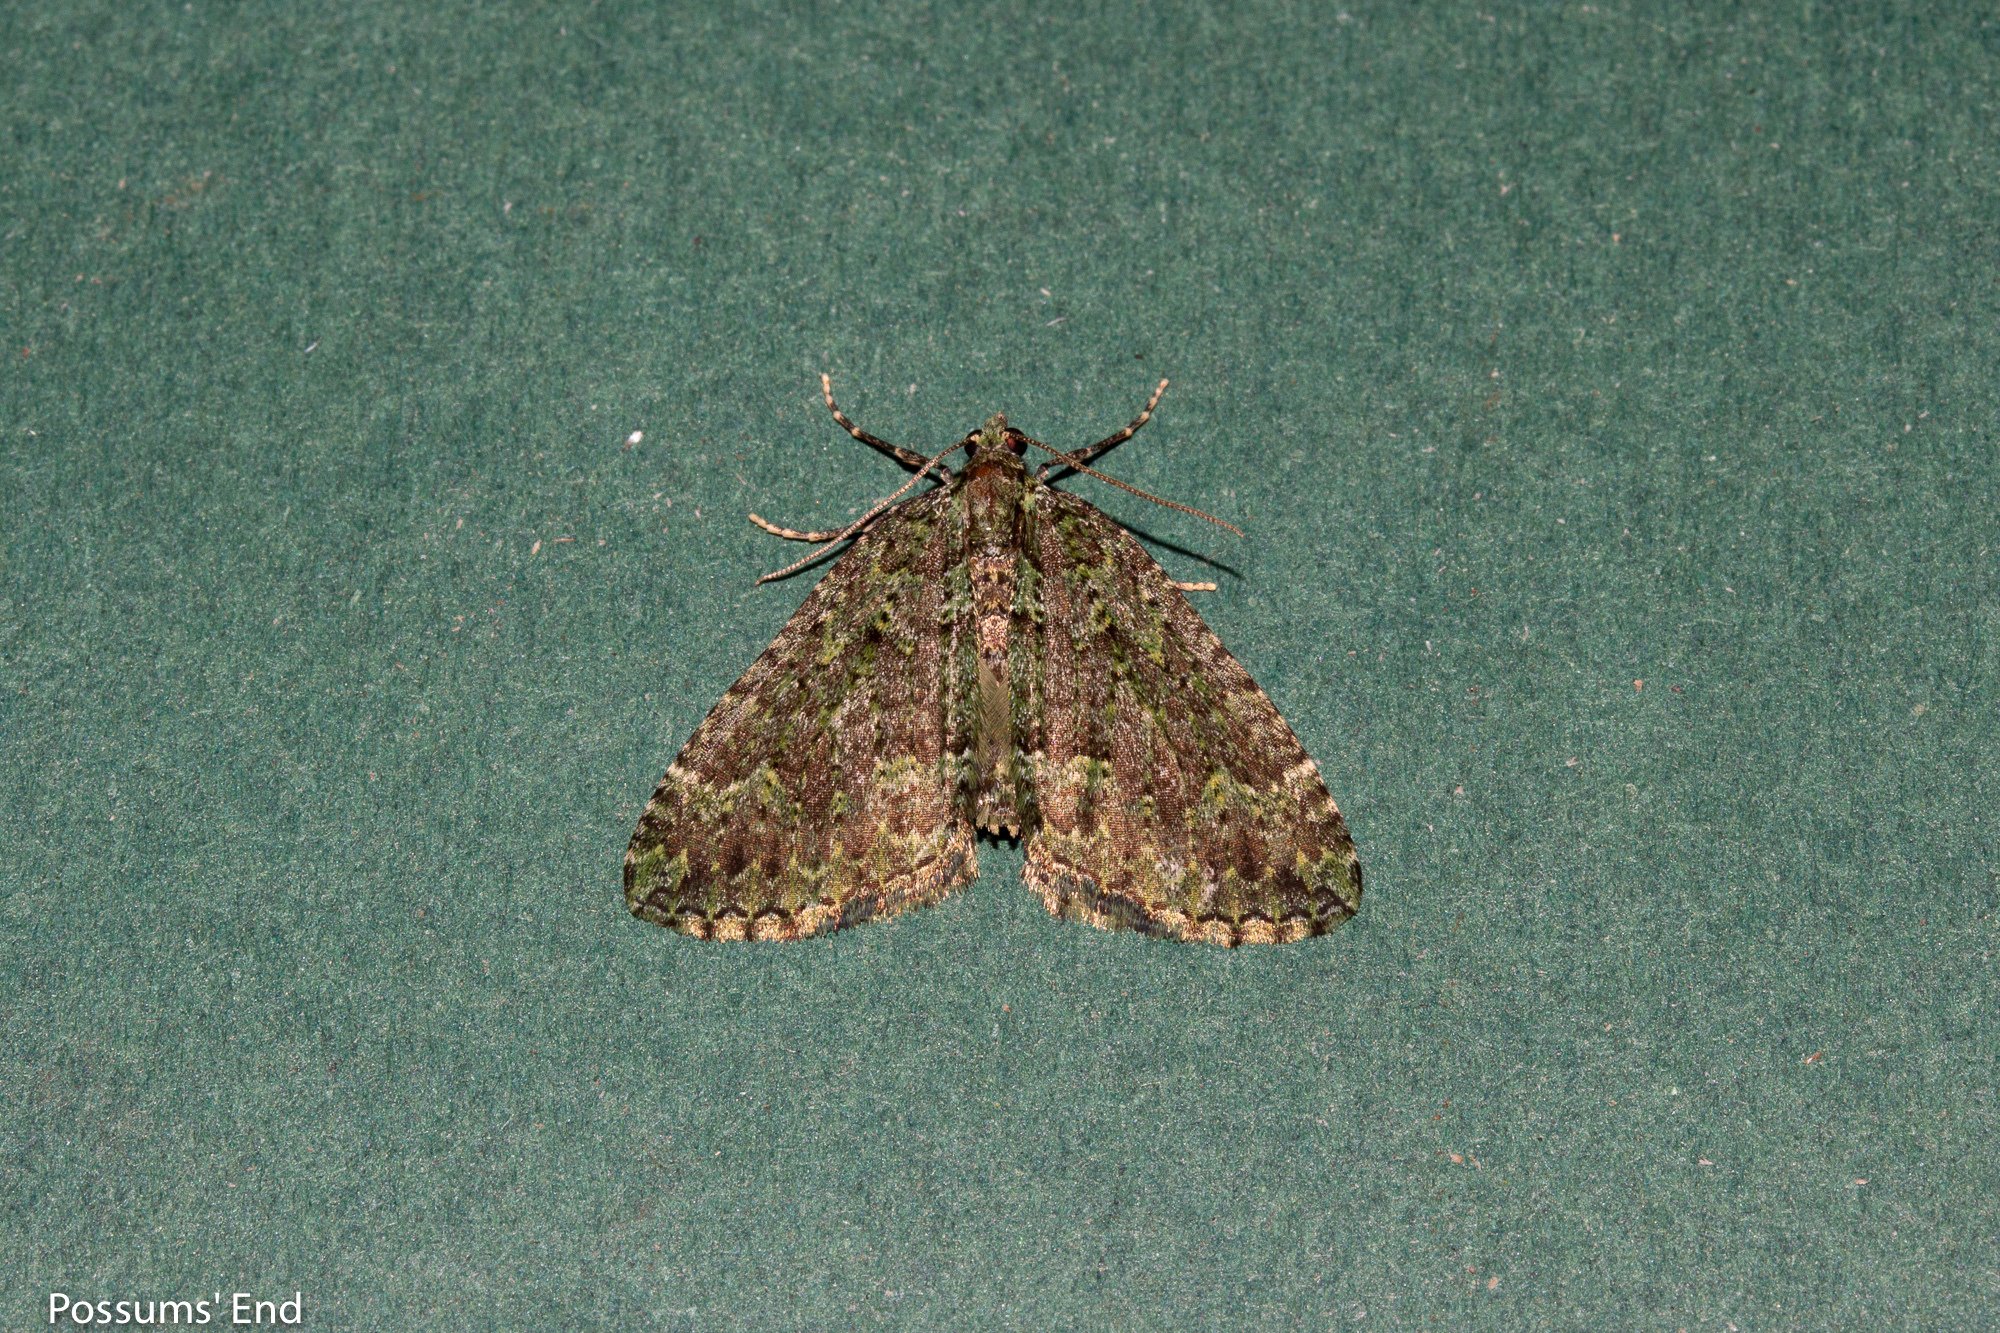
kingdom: Animalia
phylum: Arthropoda
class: Insecta
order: Lepidoptera
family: Geometridae
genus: Austrocidaria
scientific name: Austrocidaria callichlora
